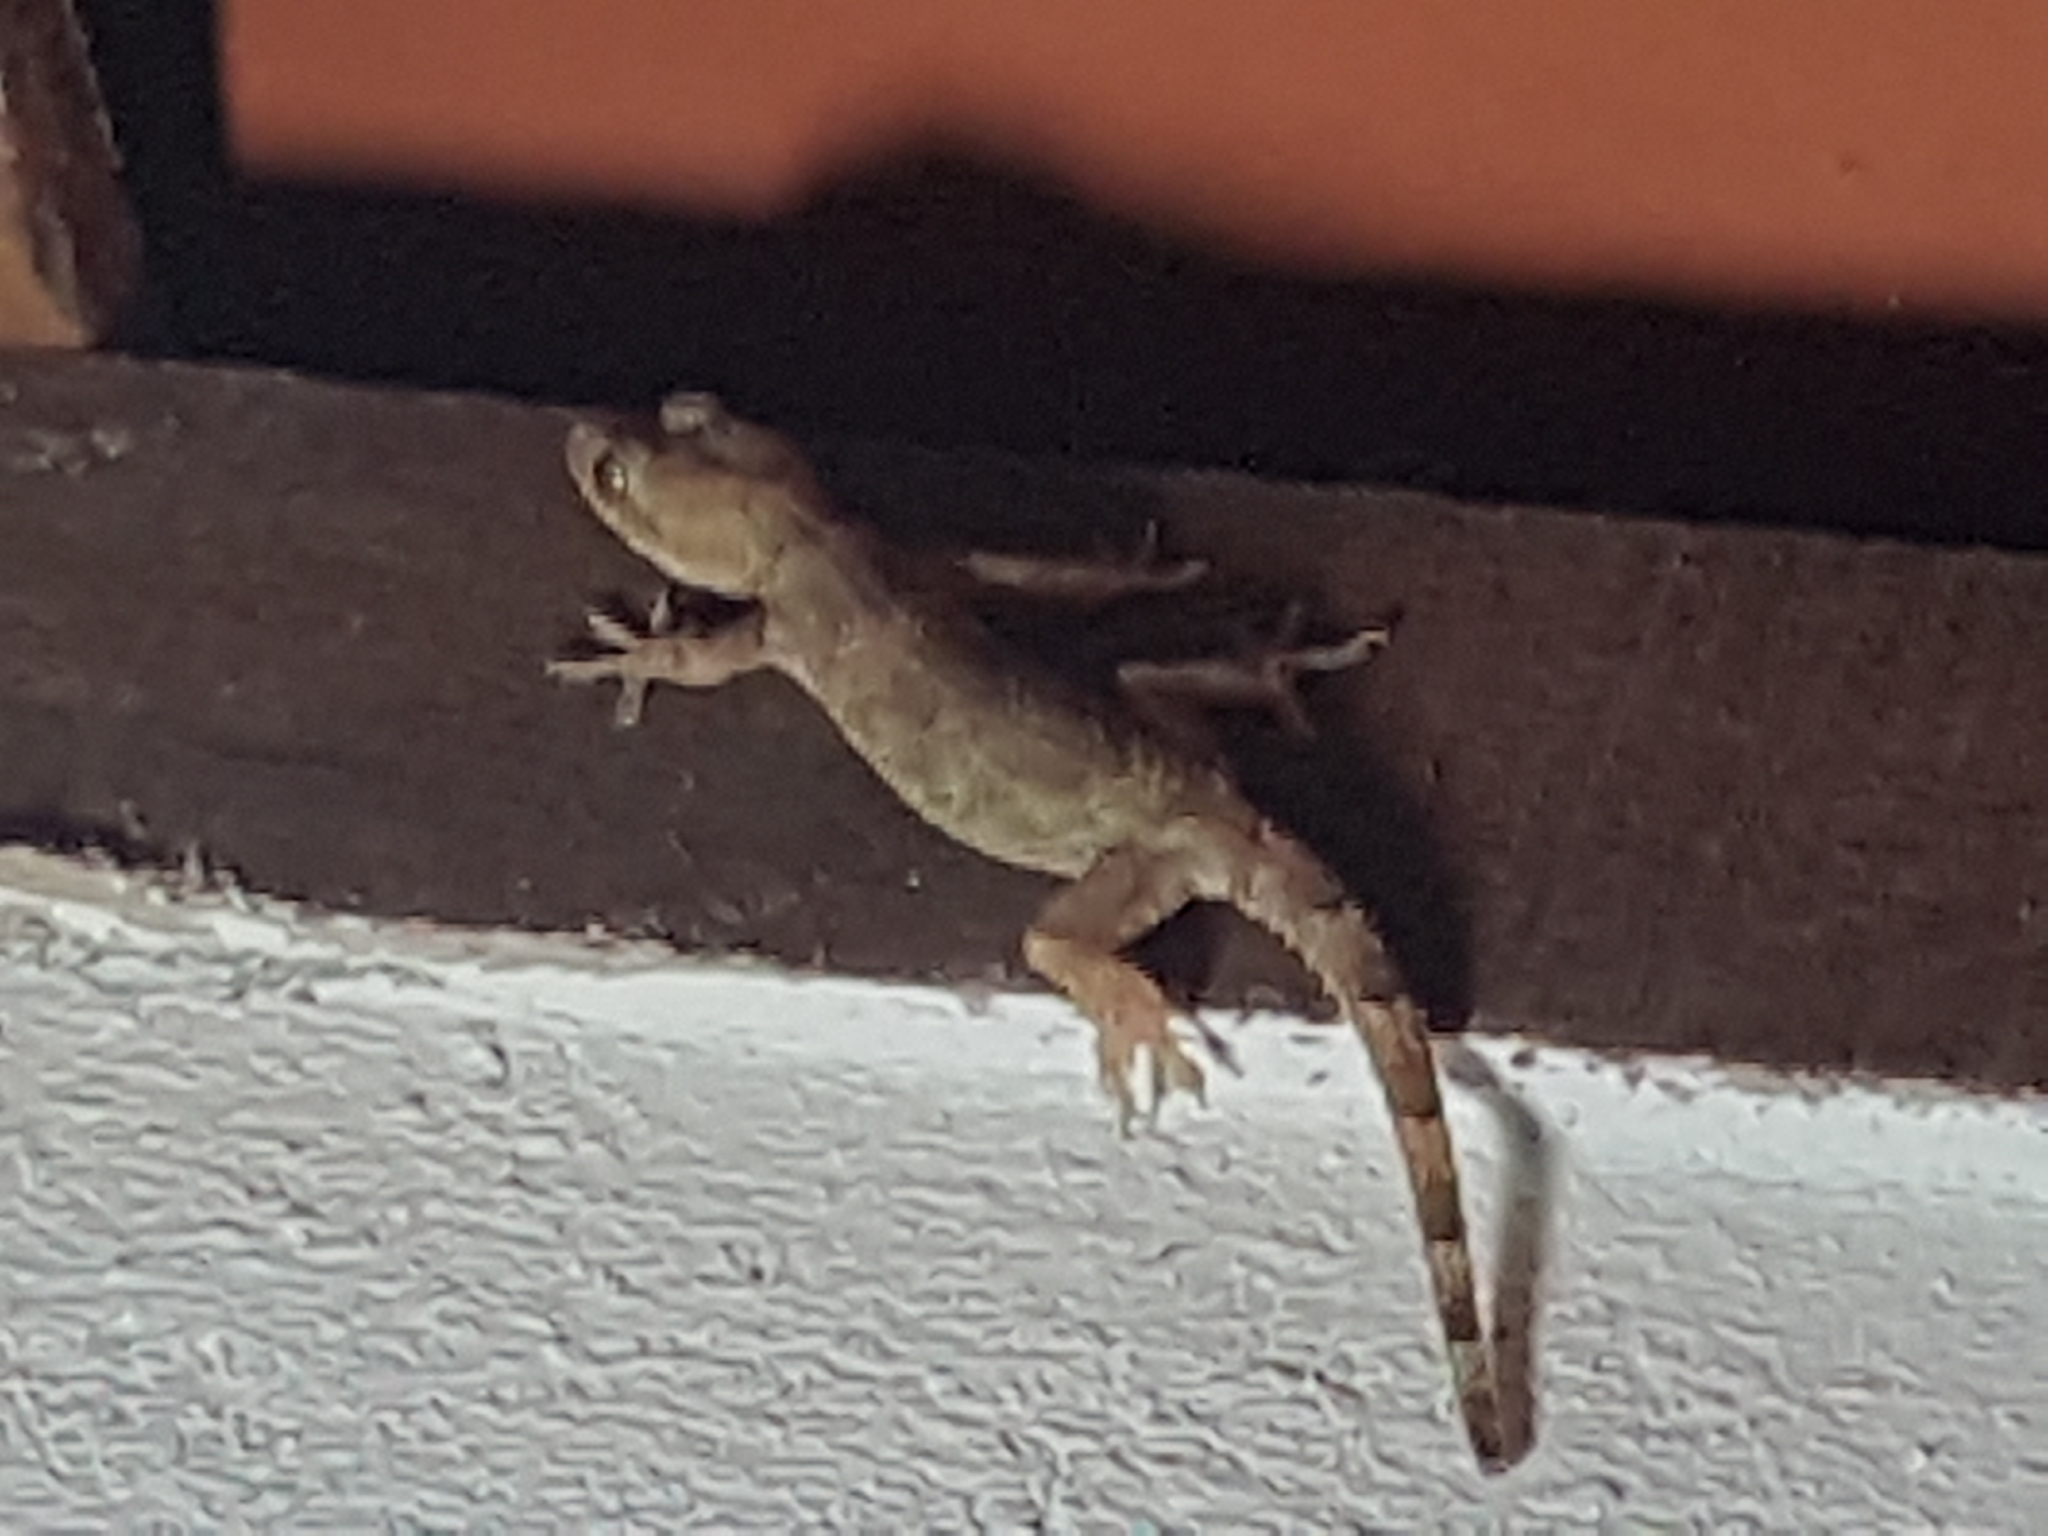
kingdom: Animalia
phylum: Chordata
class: Squamata
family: Gekkonidae
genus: Hemidactylus
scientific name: Hemidactylus mabouia
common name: House gecko
